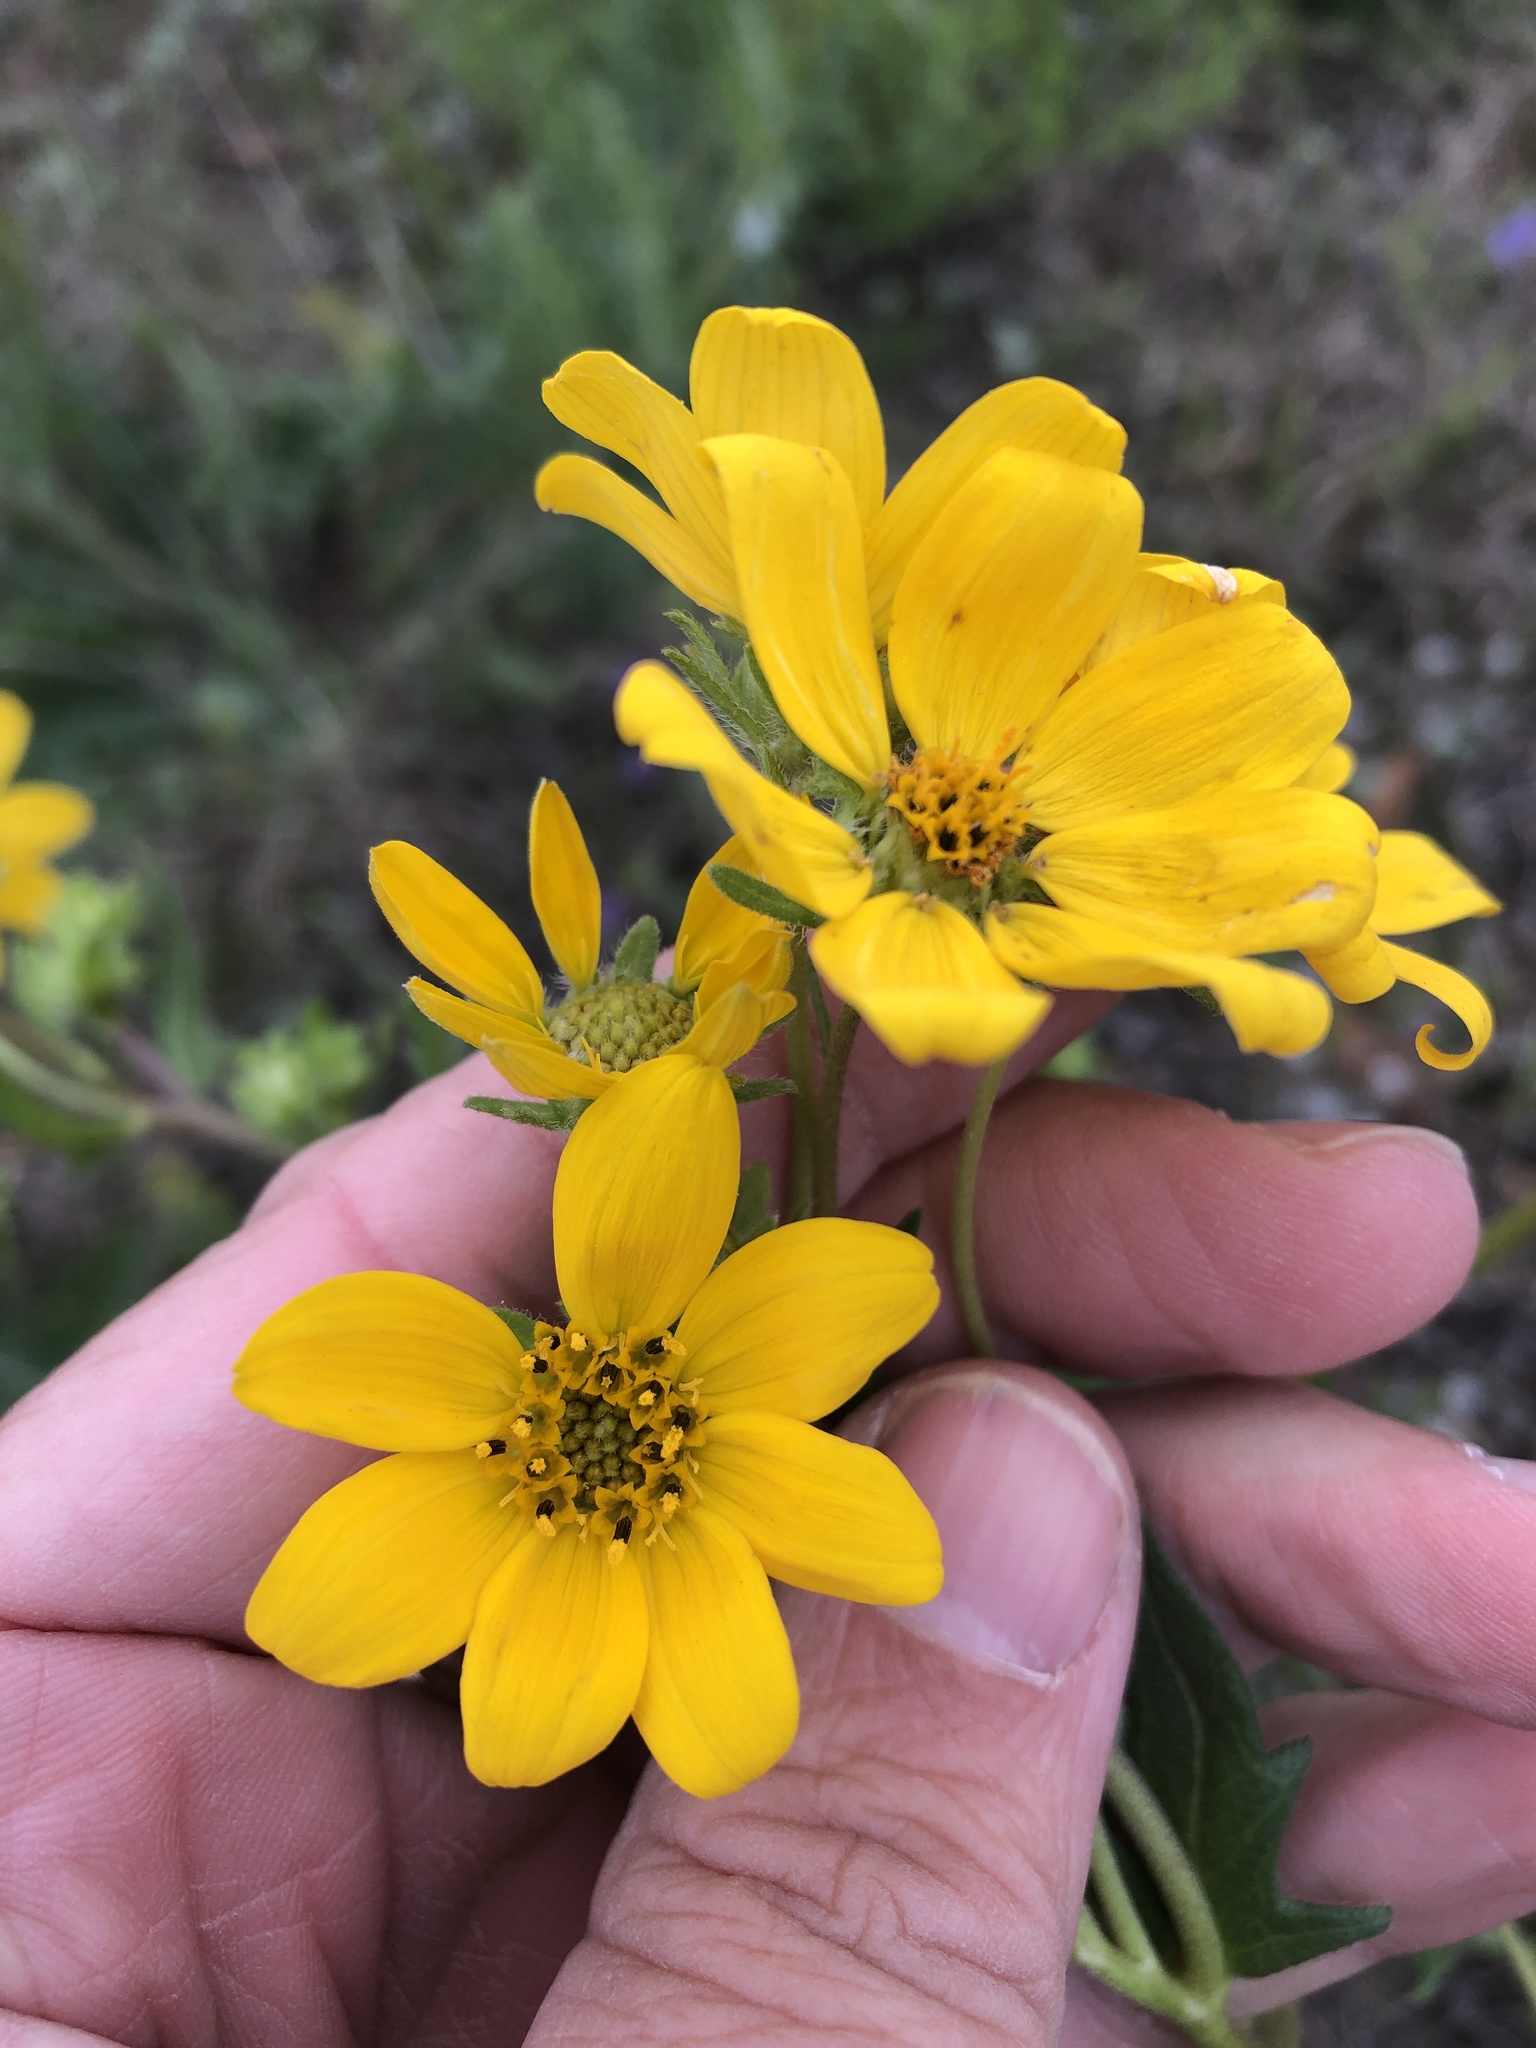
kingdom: Plantae
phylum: Tracheophyta
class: Magnoliopsida
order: Asterales
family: Asteraceae
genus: Engelmannia
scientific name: Engelmannia peristenia
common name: Engelmann's daisy
